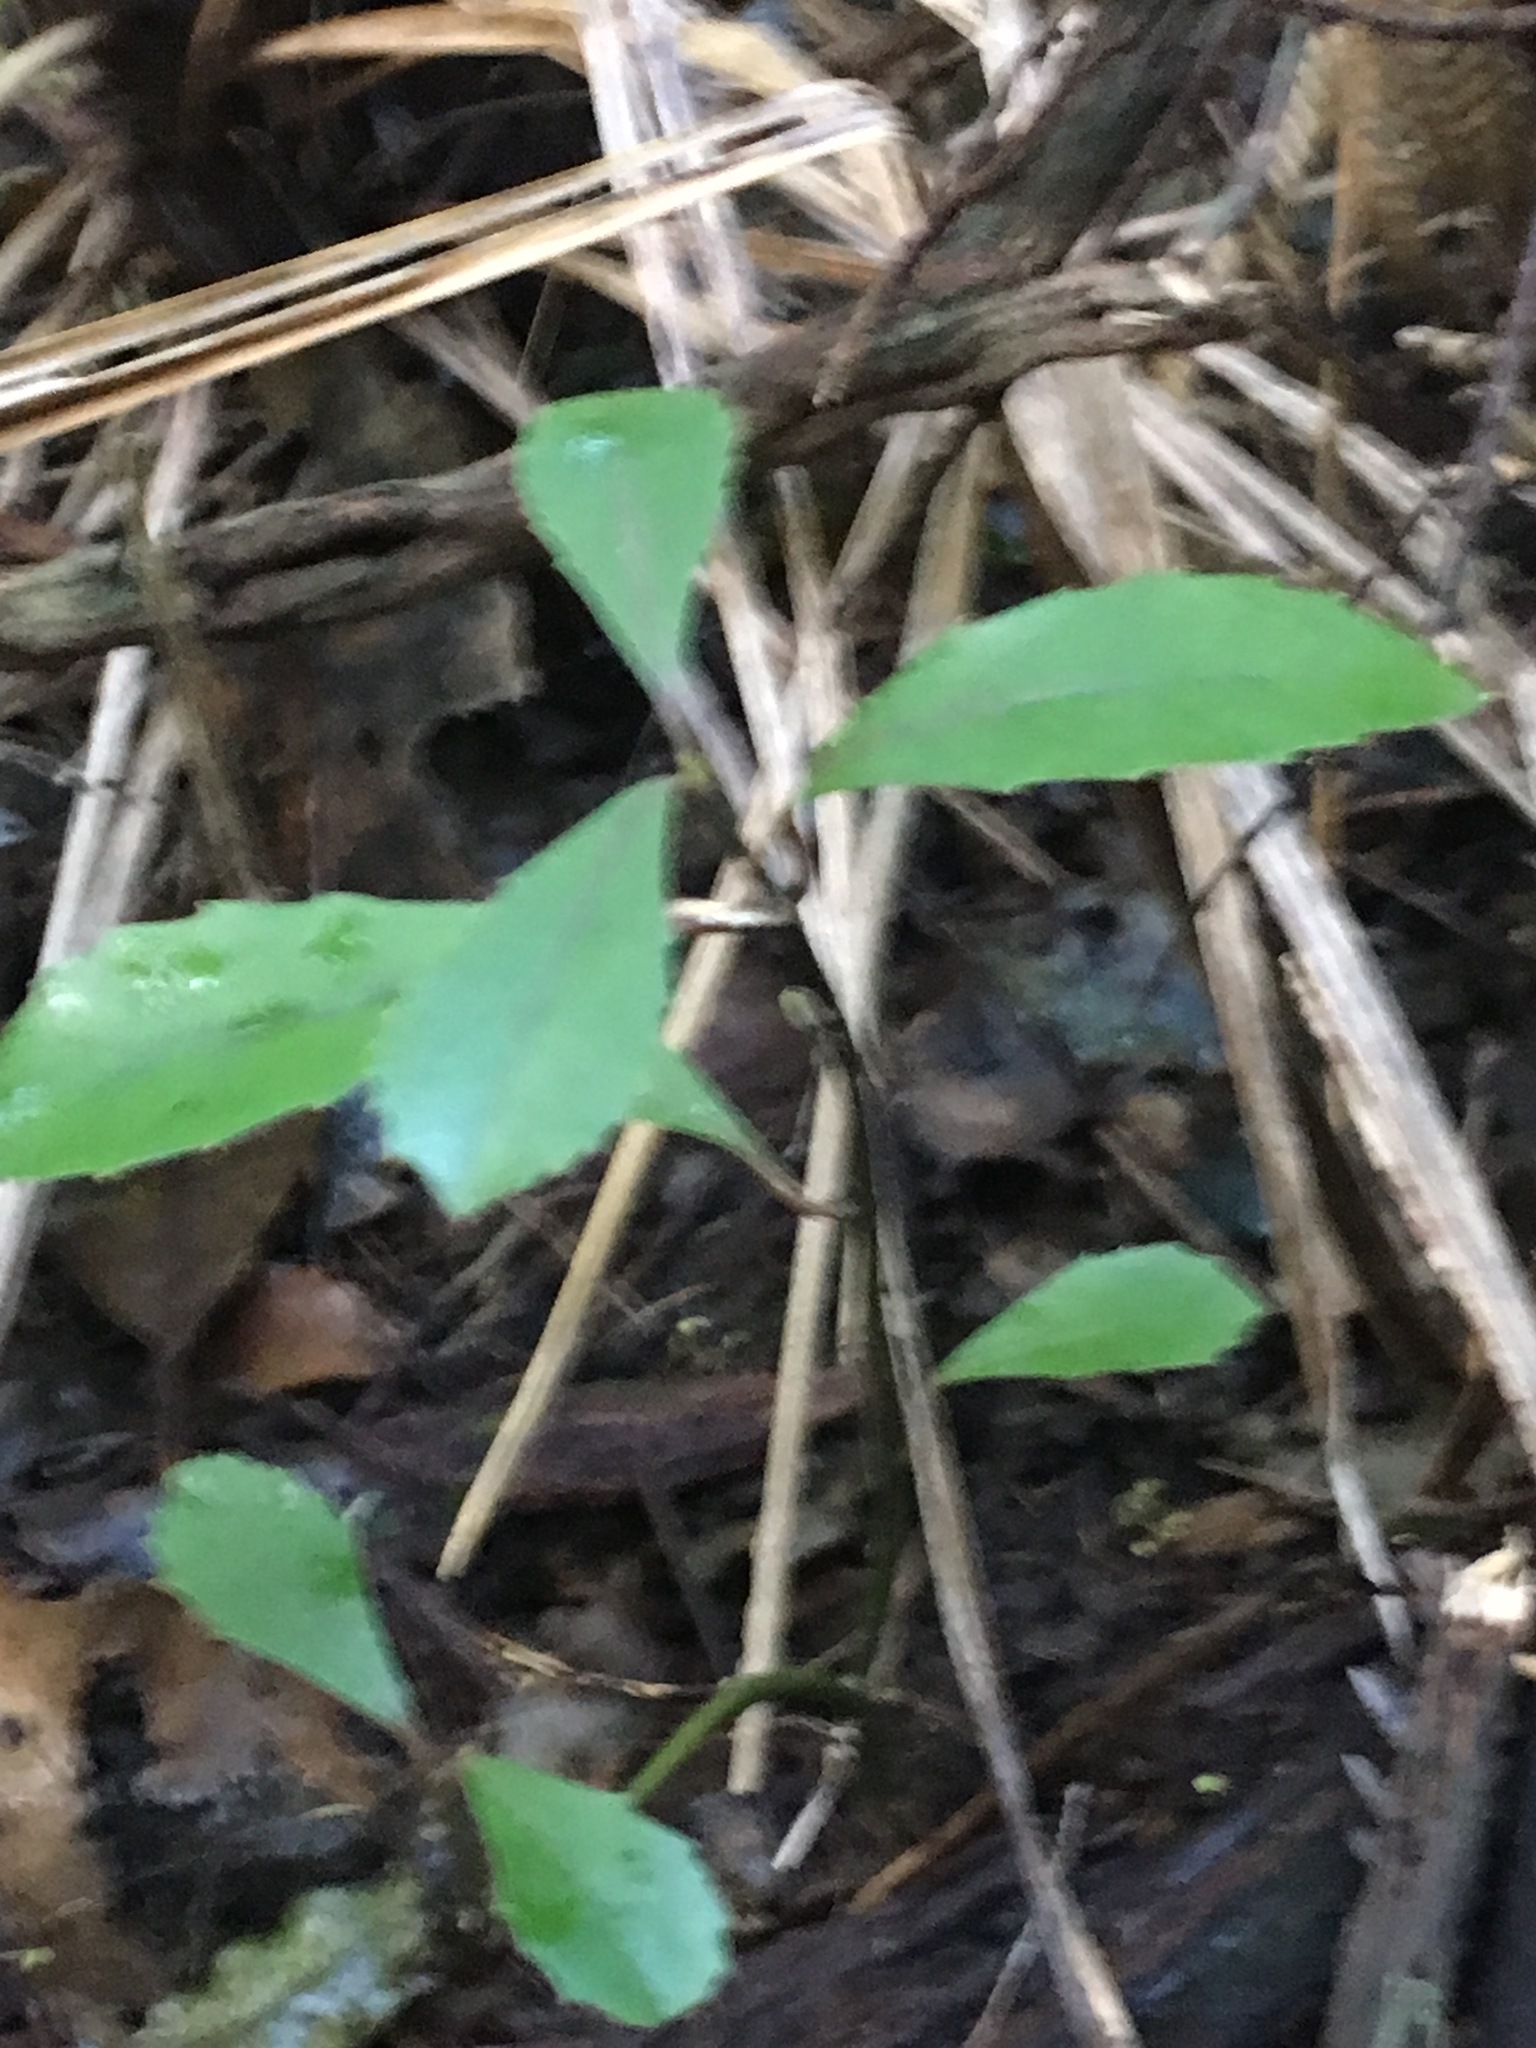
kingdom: Plantae
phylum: Tracheophyta
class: Magnoliopsida
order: Laurales
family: Monimiaceae
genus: Hedycarya
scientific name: Hedycarya arborea
